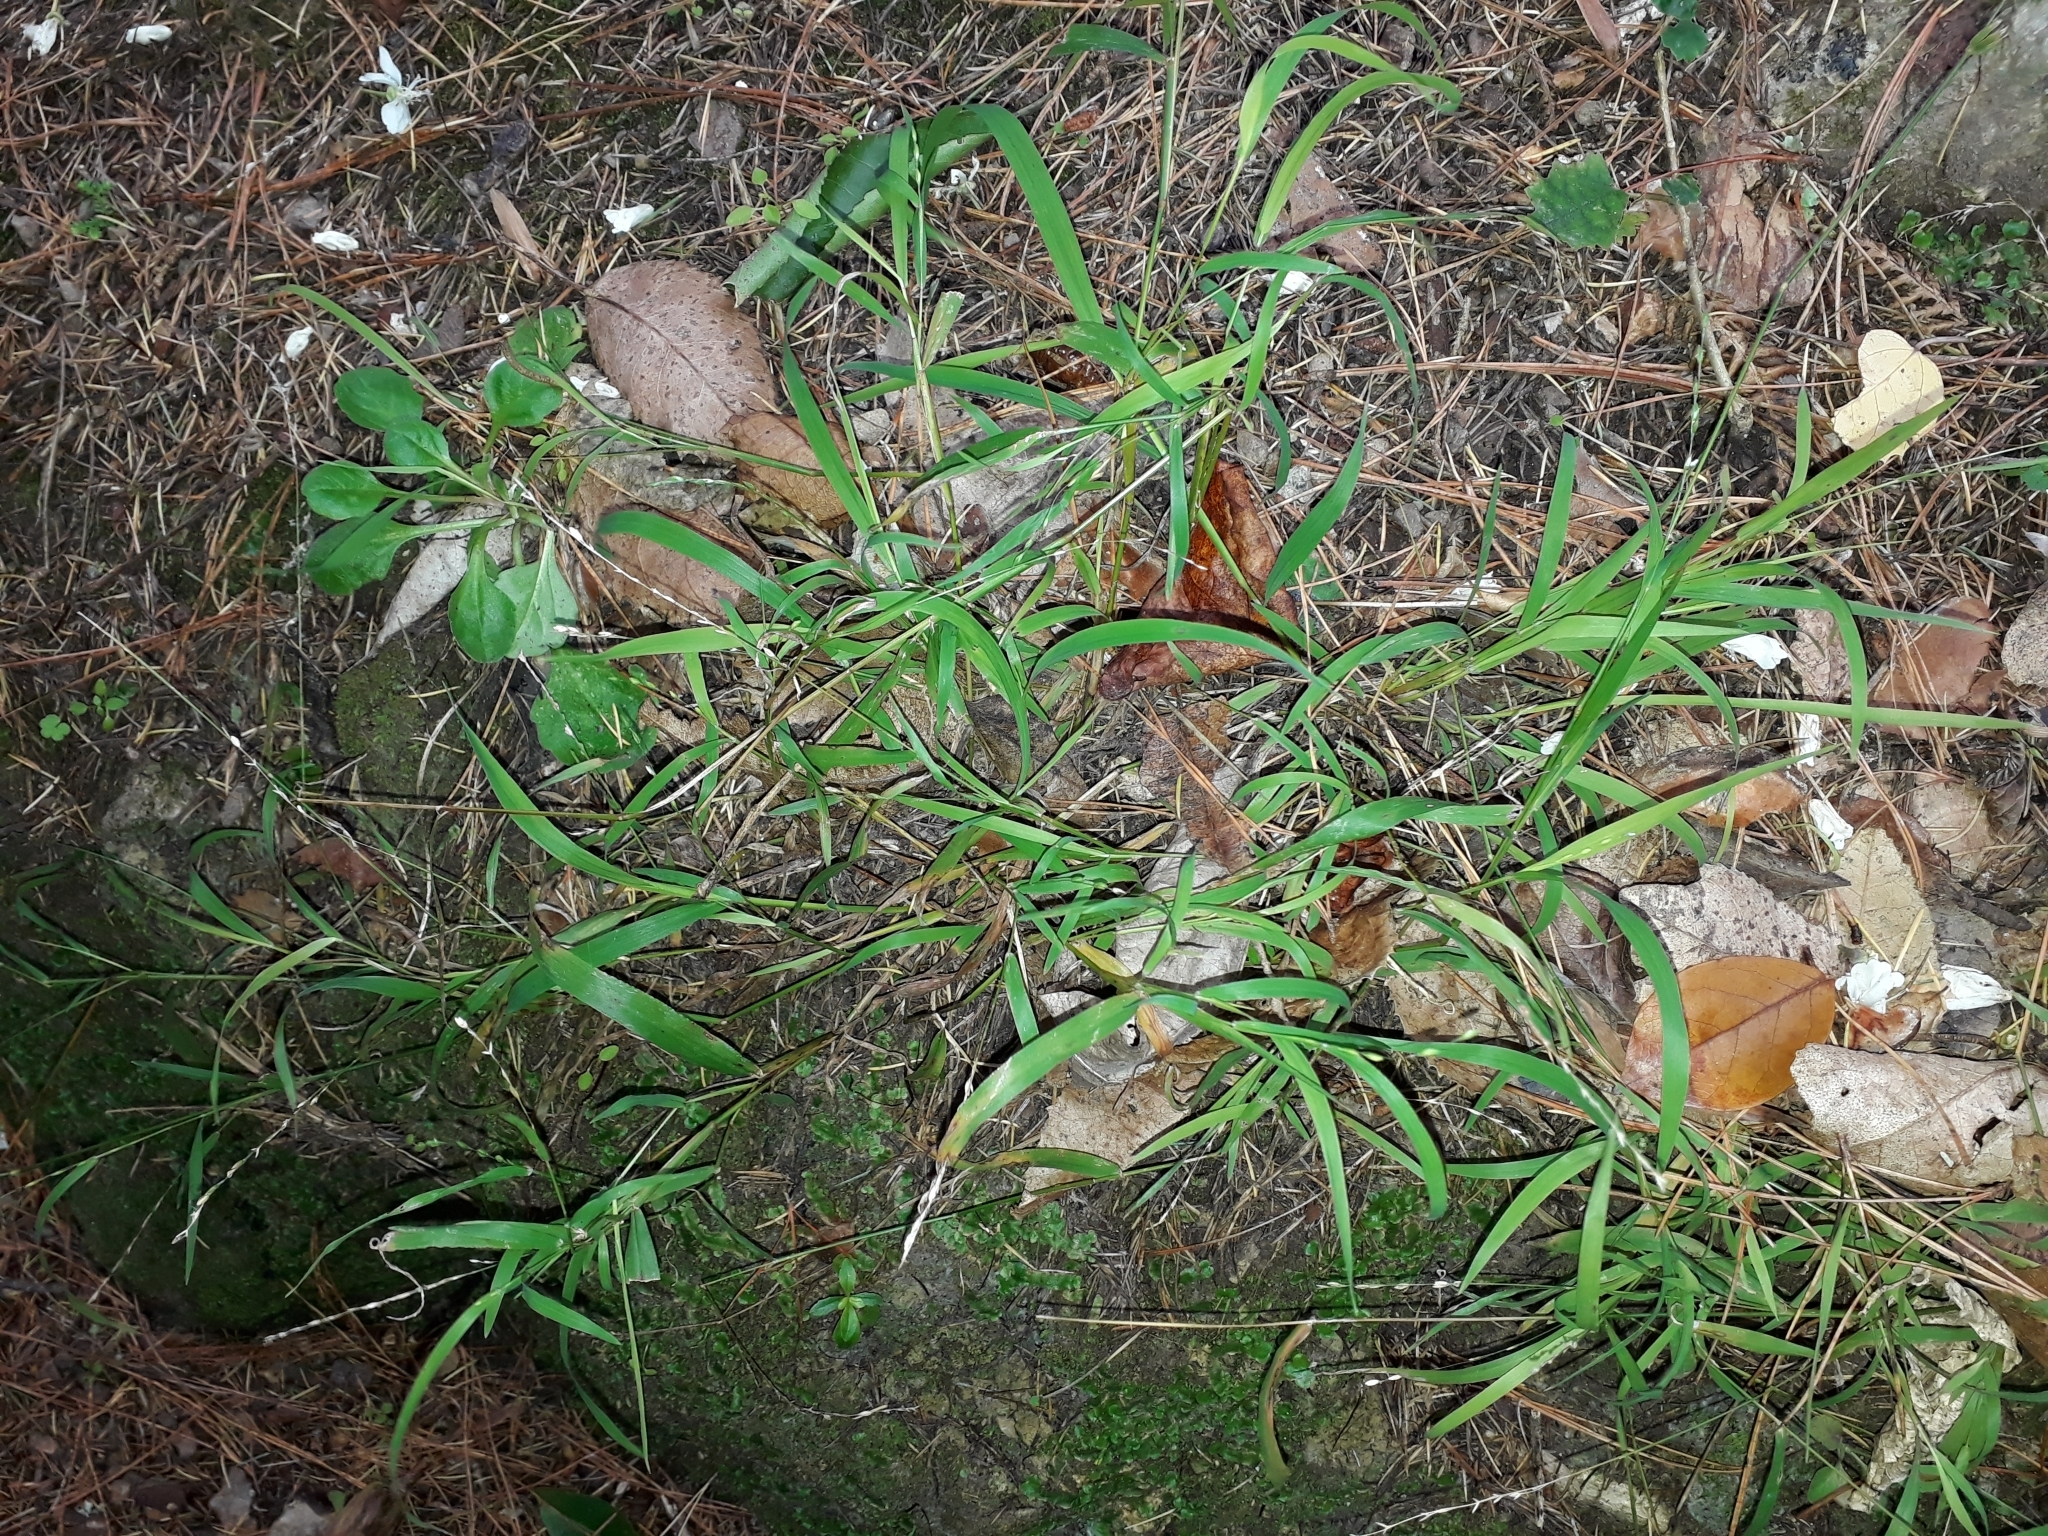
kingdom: Plantae
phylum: Tracheophyta
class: Liliopsida
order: Poales
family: Poaceae
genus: Ehrharta
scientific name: Ehrharta erecta
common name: Panic veldtgrass
